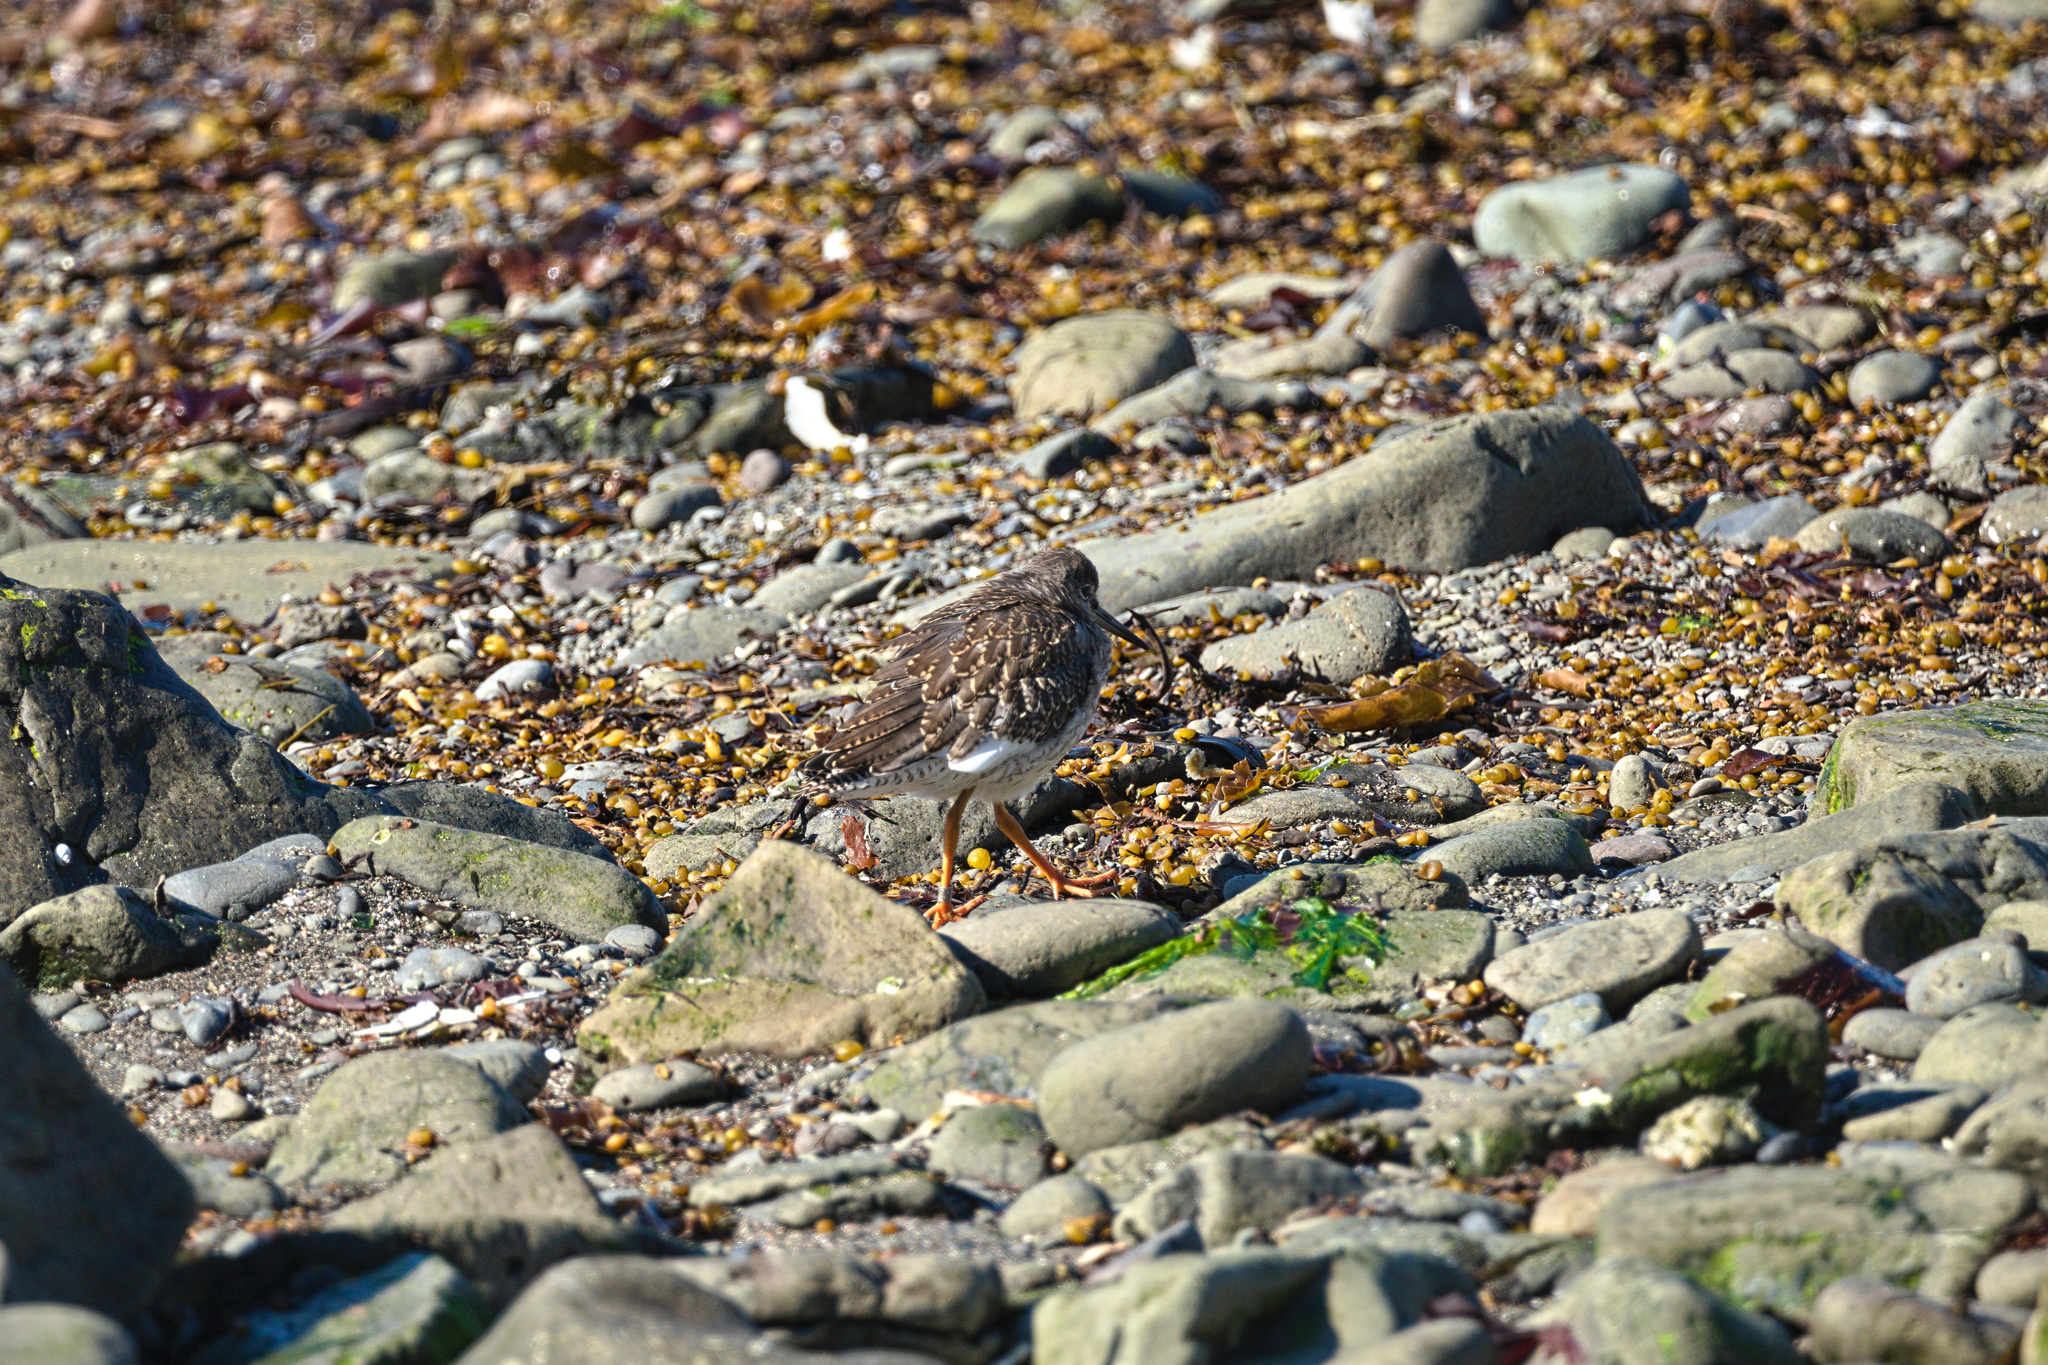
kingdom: Animalia
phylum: Chordata
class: Aves
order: Charadriiformes
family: Scolopacidae
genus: Calidris
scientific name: Calidris maritima
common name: Purple sandpiper
